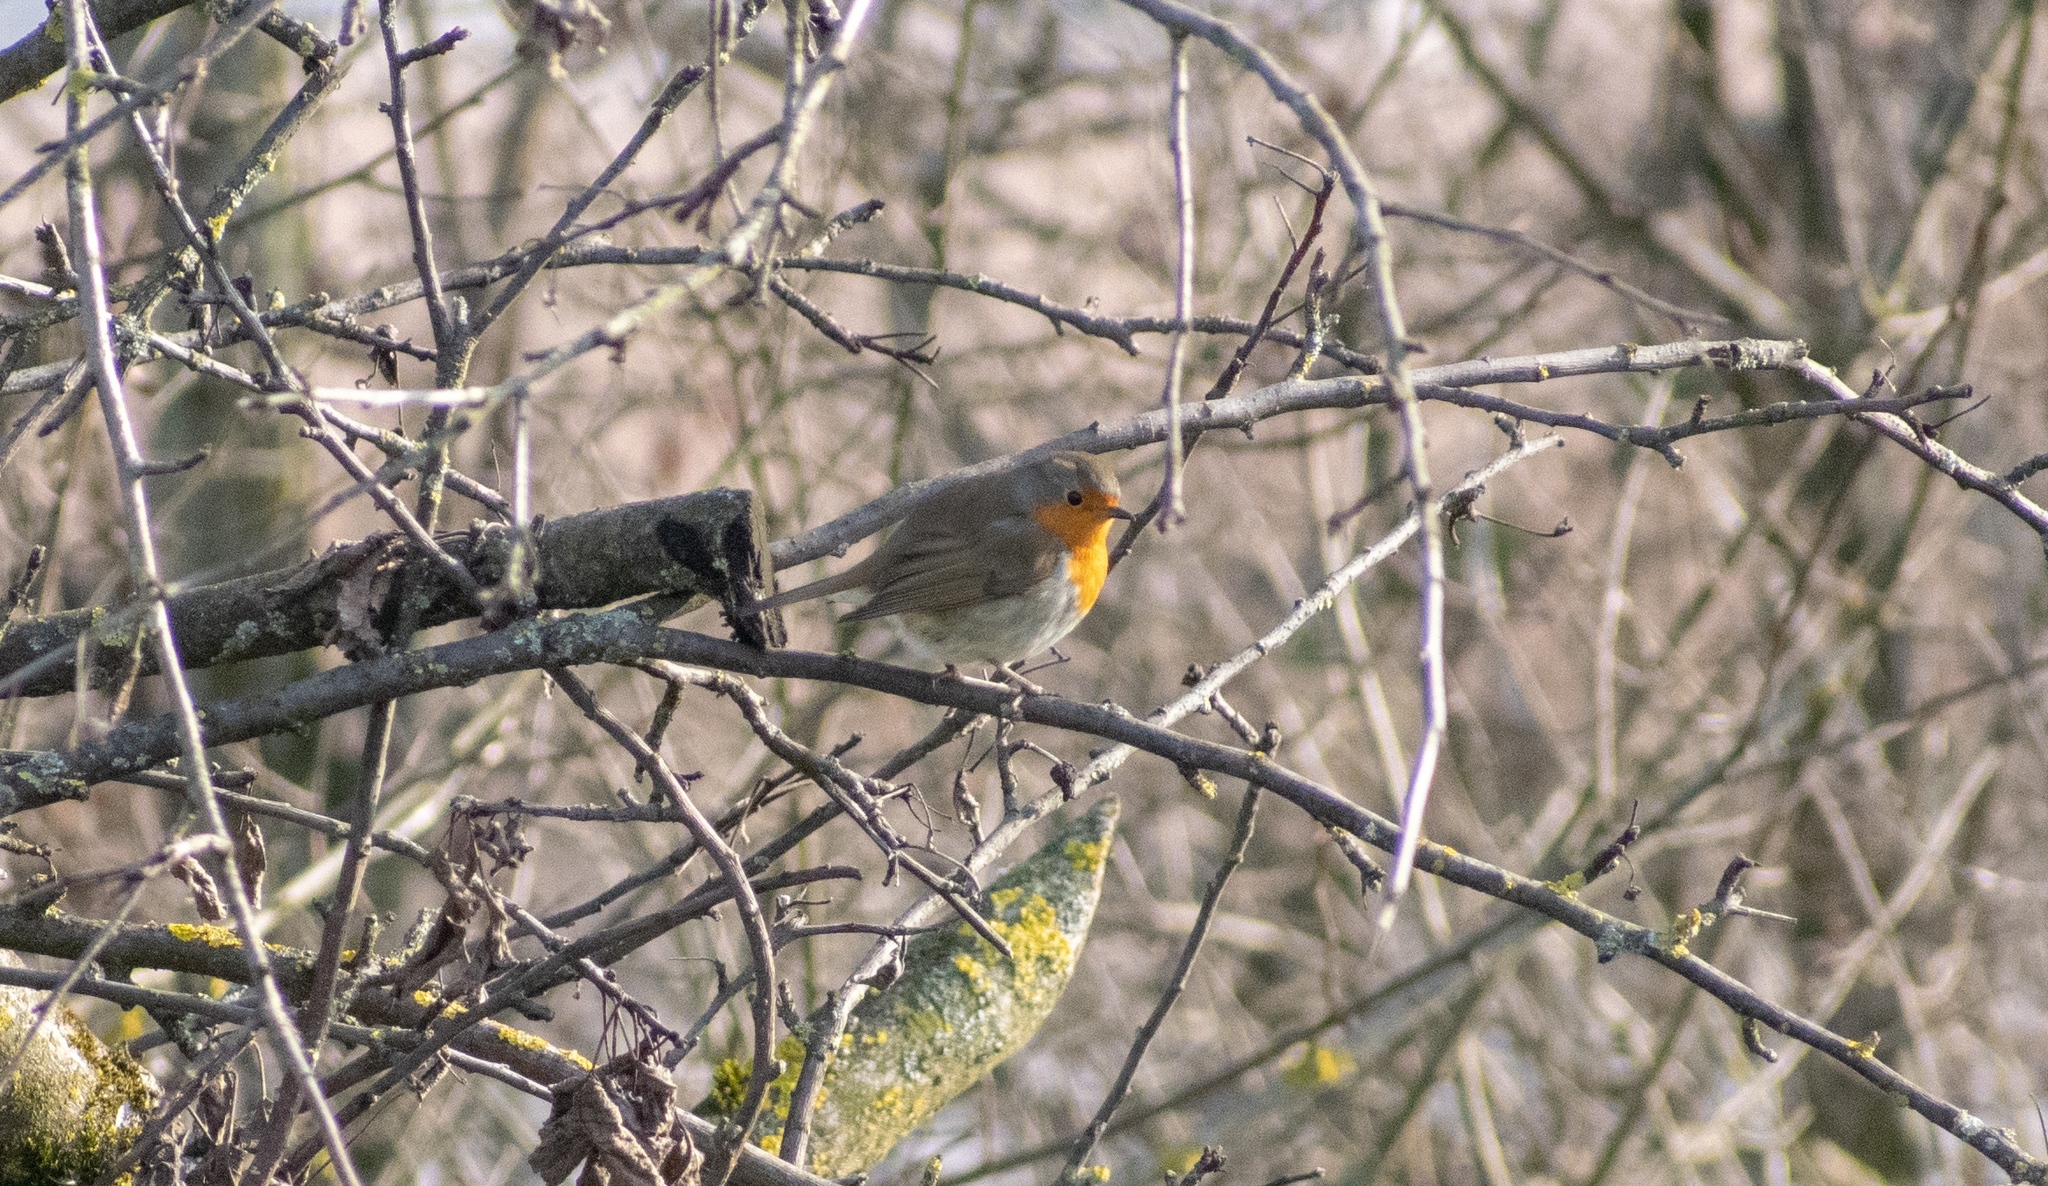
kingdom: Animalia
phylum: Chordata
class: Aves
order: Passeriformes
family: Muscicapidae
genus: Erithacus
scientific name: Erithacus rubecula
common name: European robin
